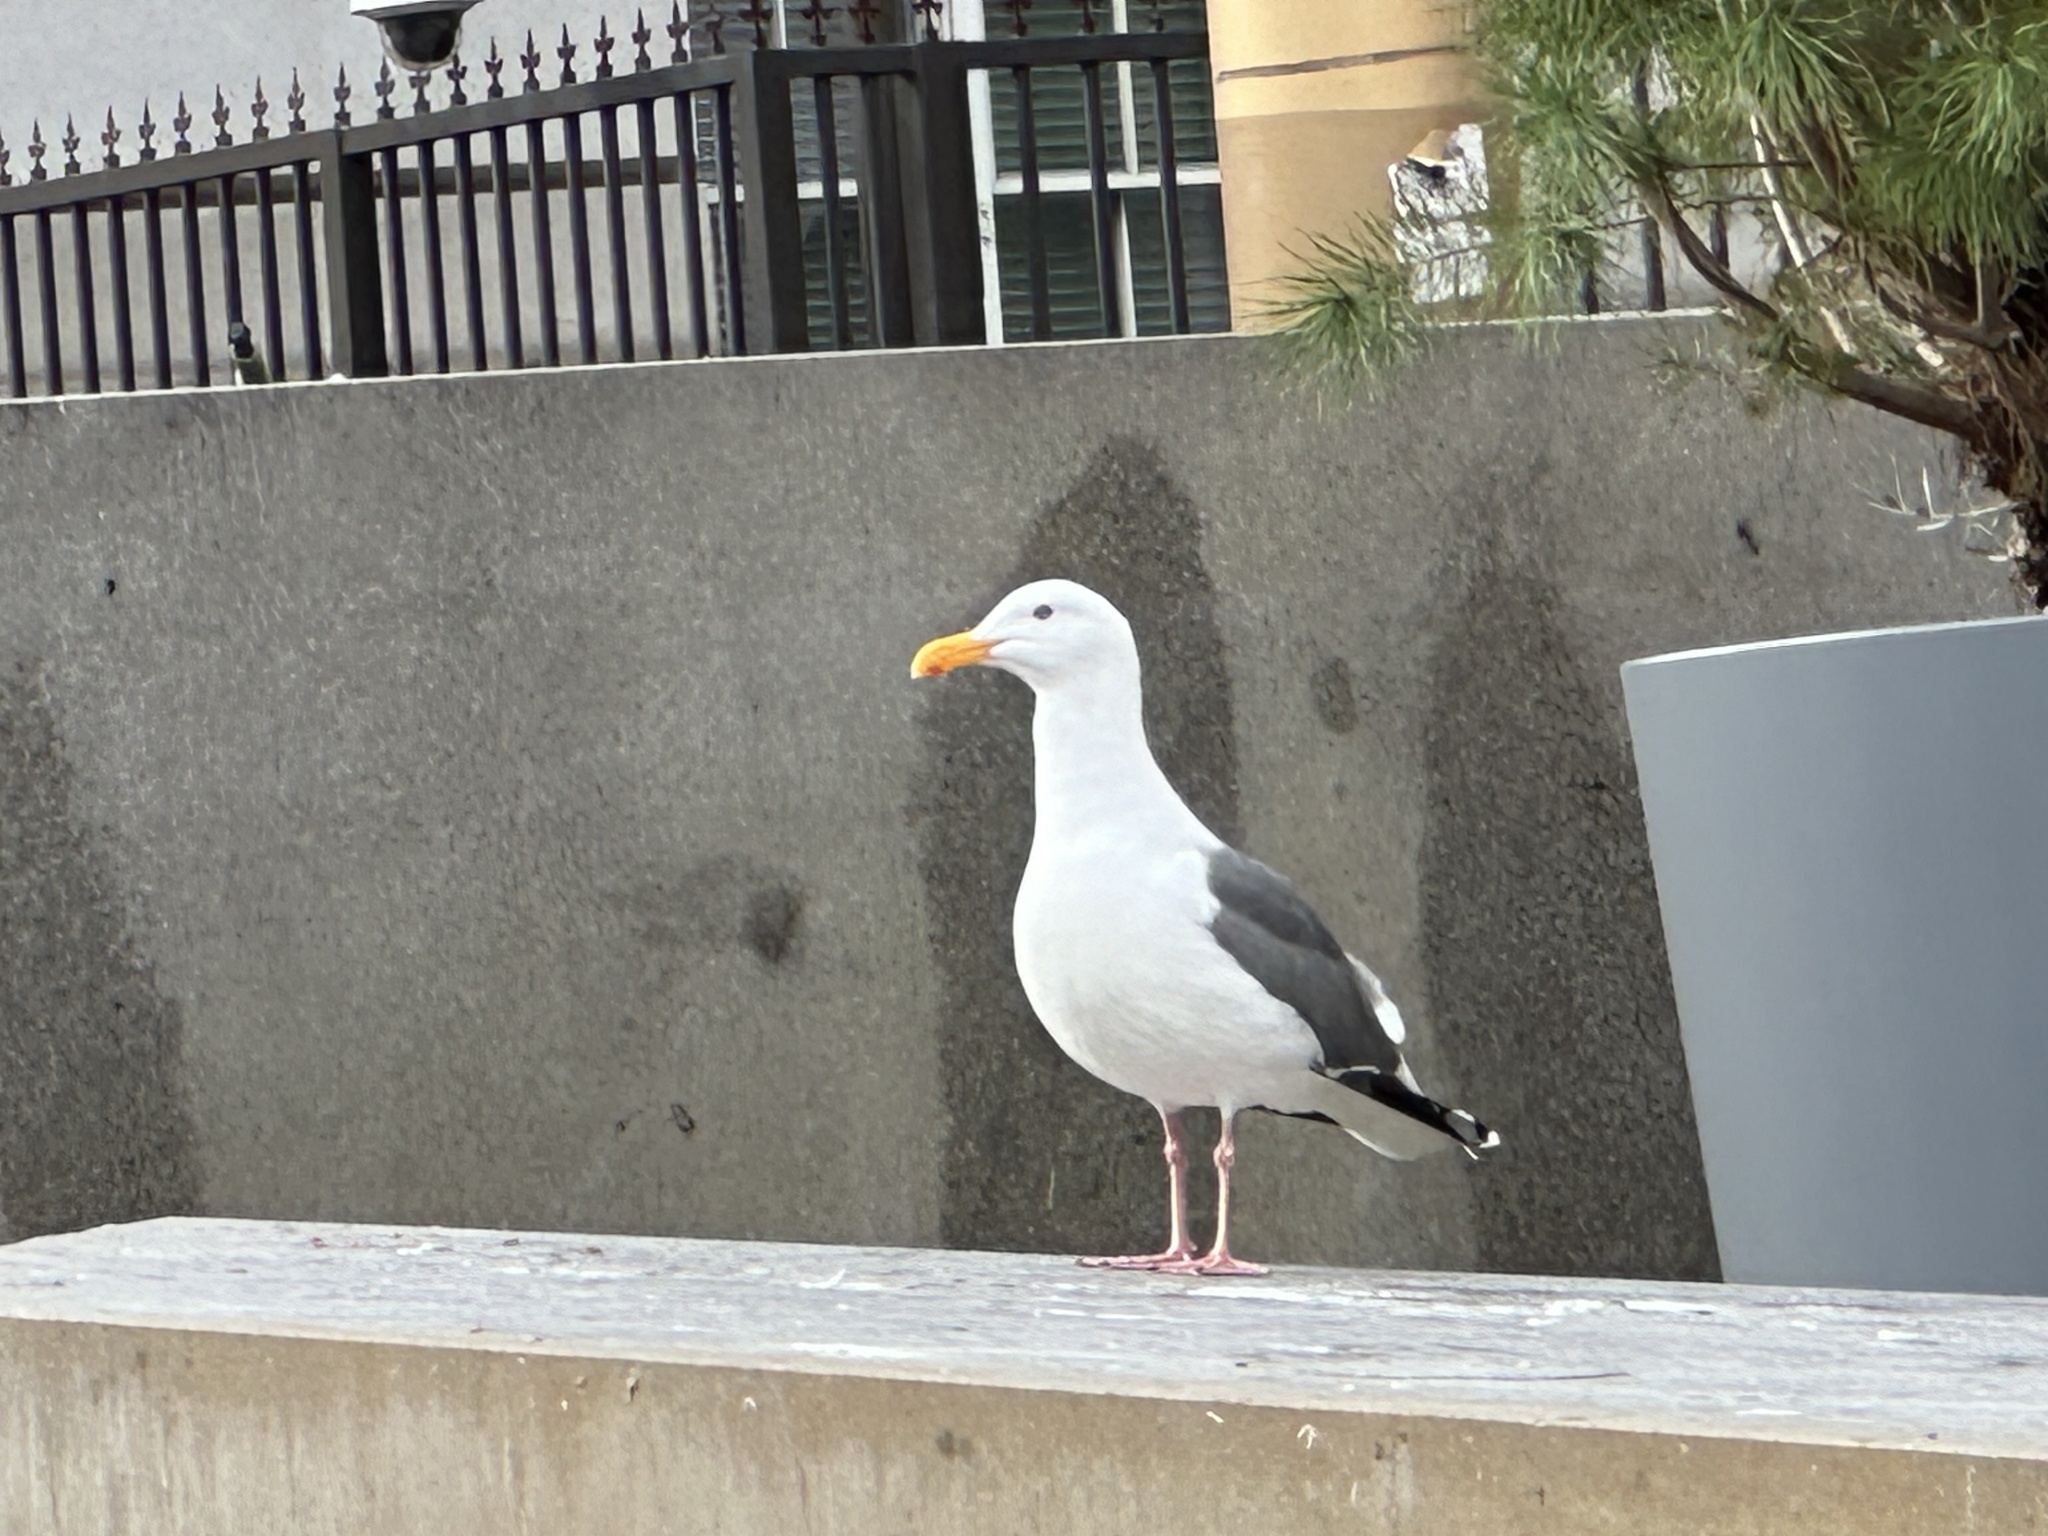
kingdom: Animalia
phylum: Chordata
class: Aves
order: Charadriiformes
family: Laridae
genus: Larus
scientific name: Larus occidentalis
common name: Western gull
